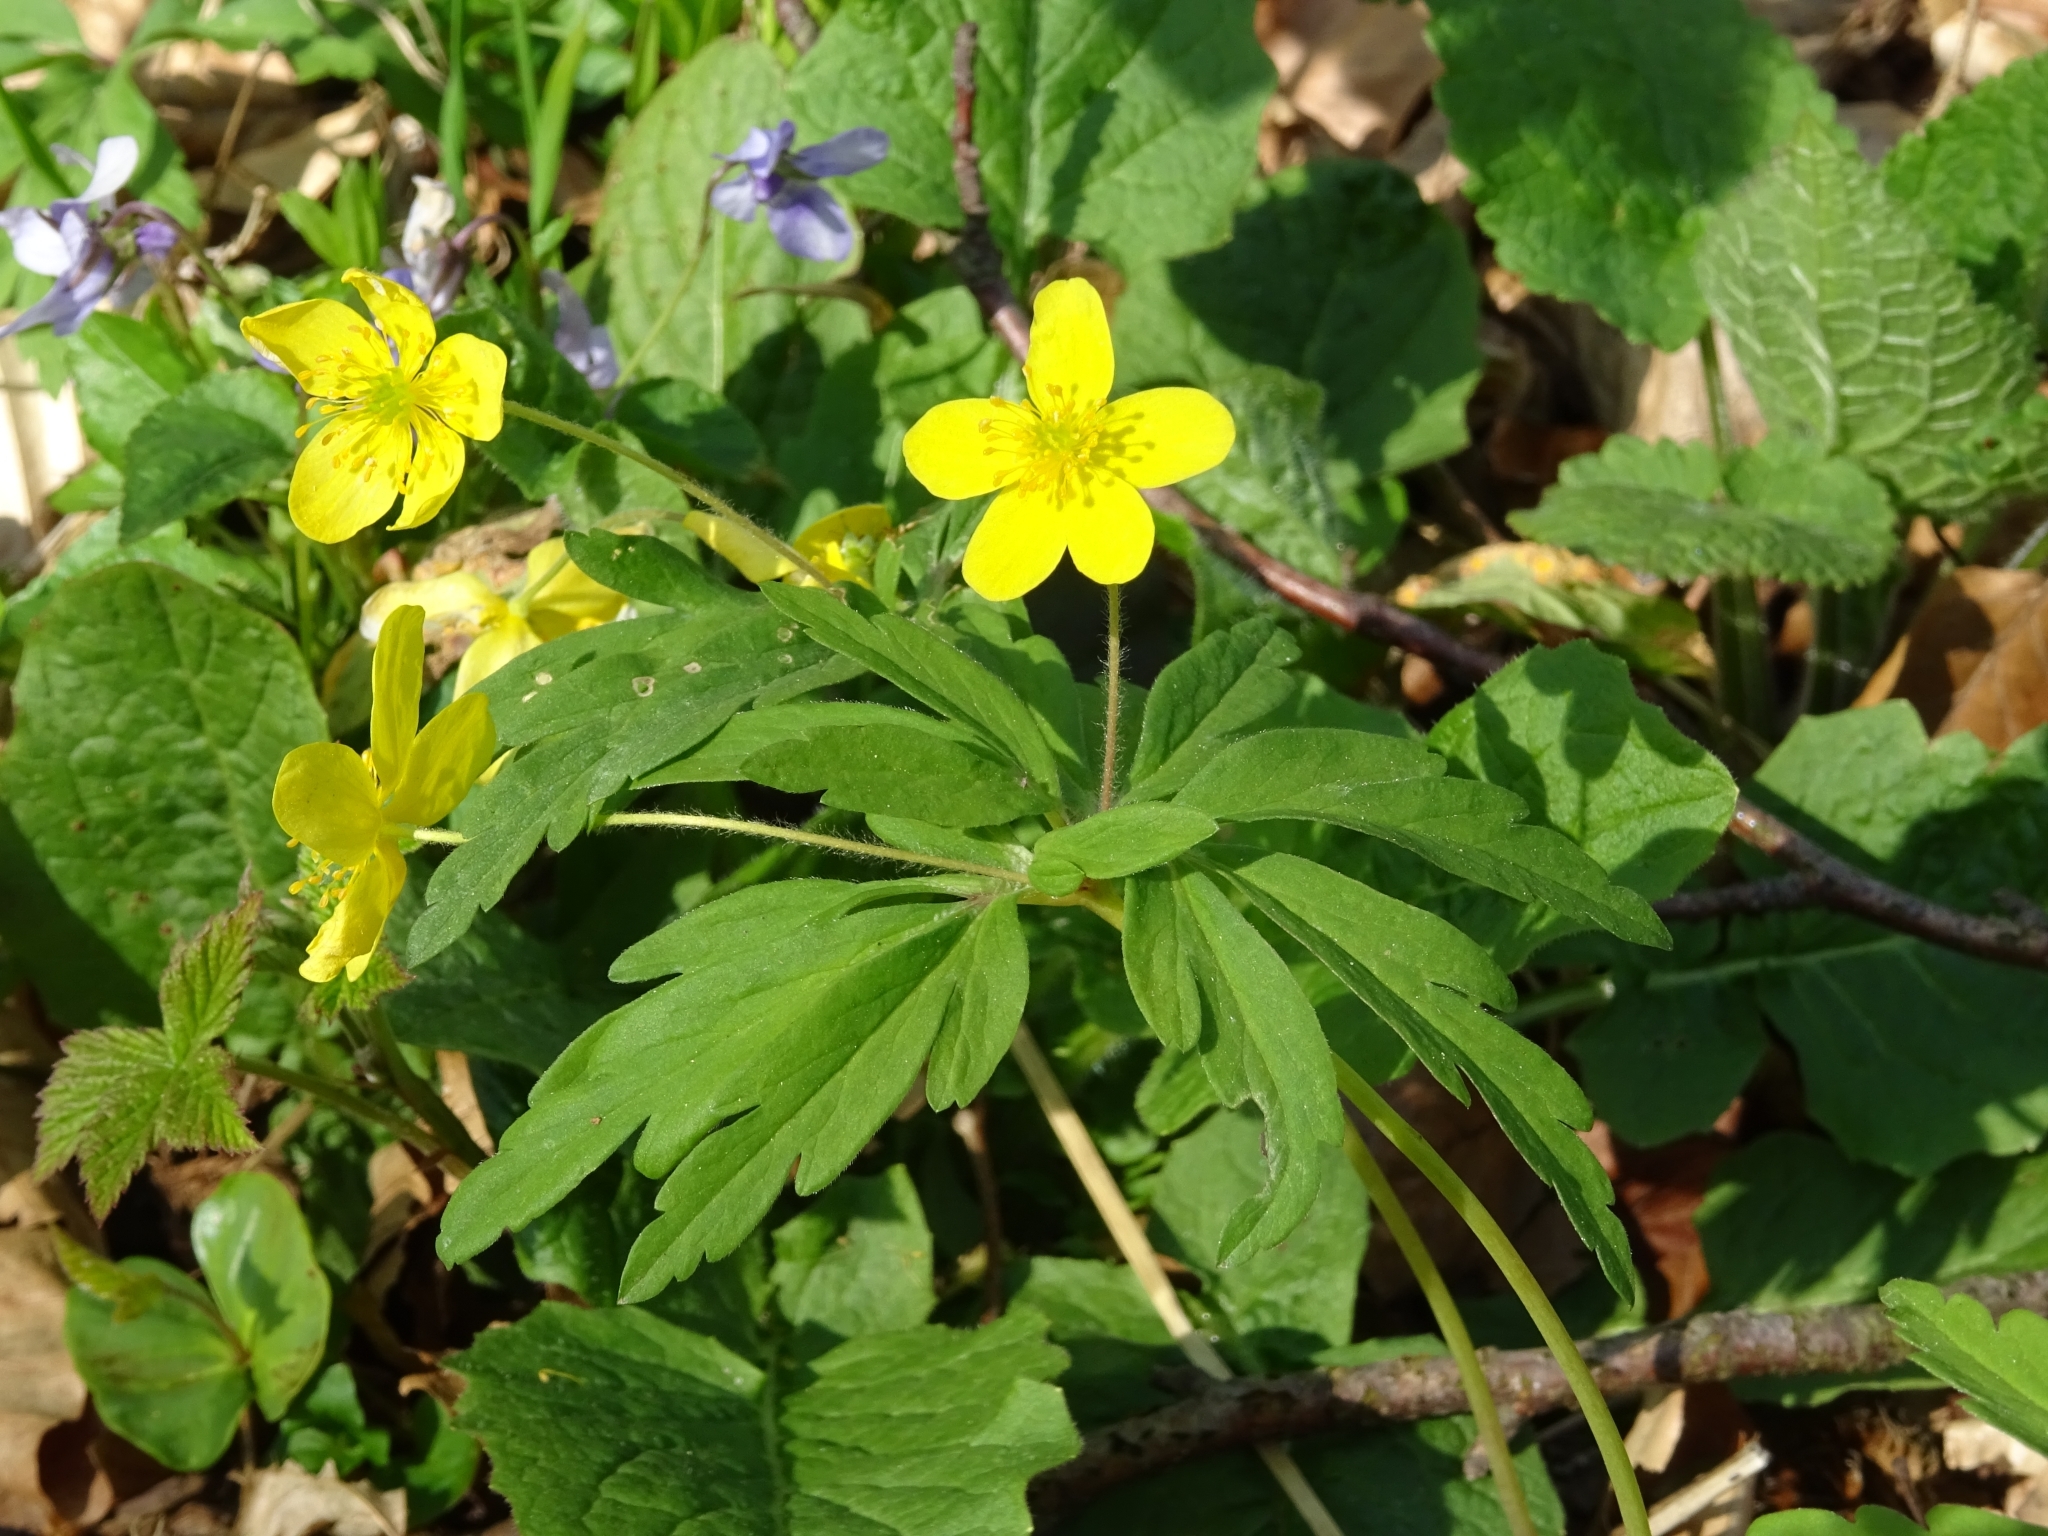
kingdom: Plantae
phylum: Tracheophyta
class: Magnoliopsida
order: Ranunculales
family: Ranunculaceae
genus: Anemone
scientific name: Anemone ranunculoides
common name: Yellow anemone
